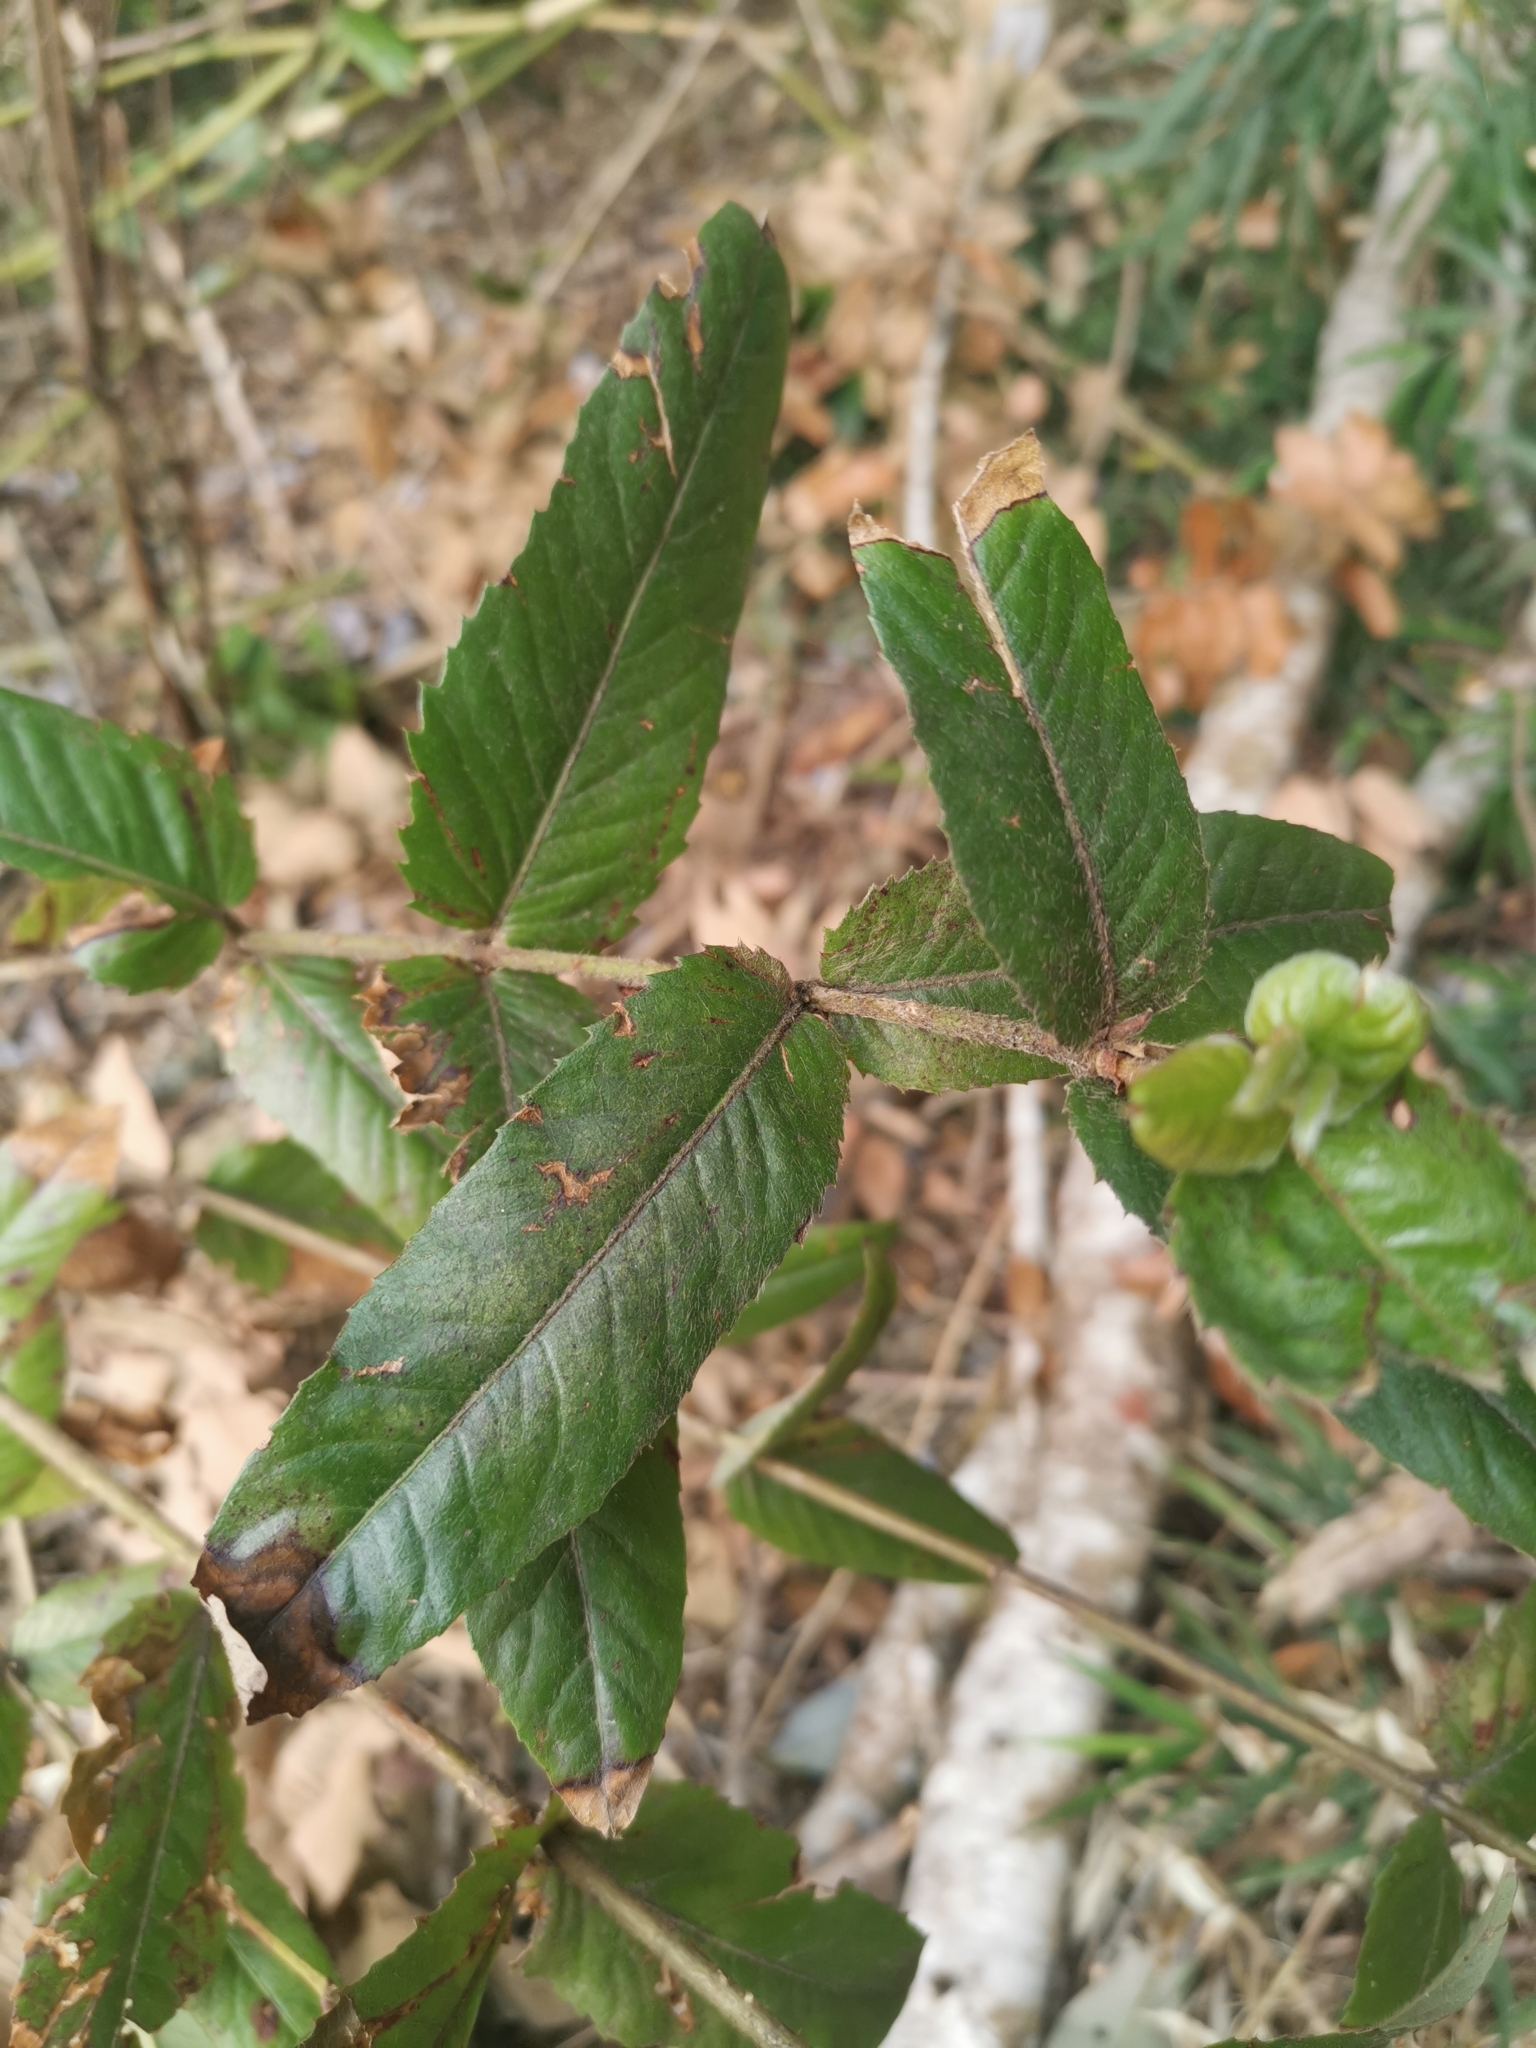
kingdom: Plantae
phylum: Tracheophyta
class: Magnoliopsida
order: Oxalidales
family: Cunoniaceae
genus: Eucryphia
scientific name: Eucryphia cordifolia
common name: Ulmo
